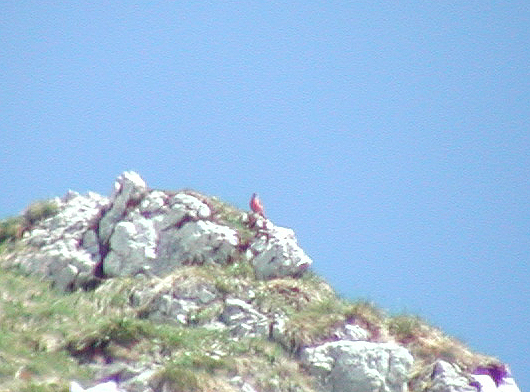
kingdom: Animalia
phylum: Chordata
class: Aves
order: Passeriformes
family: Muscicapidae
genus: Monticola
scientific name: Monticola saxatilis
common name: Rufous-tailed rock thrush
